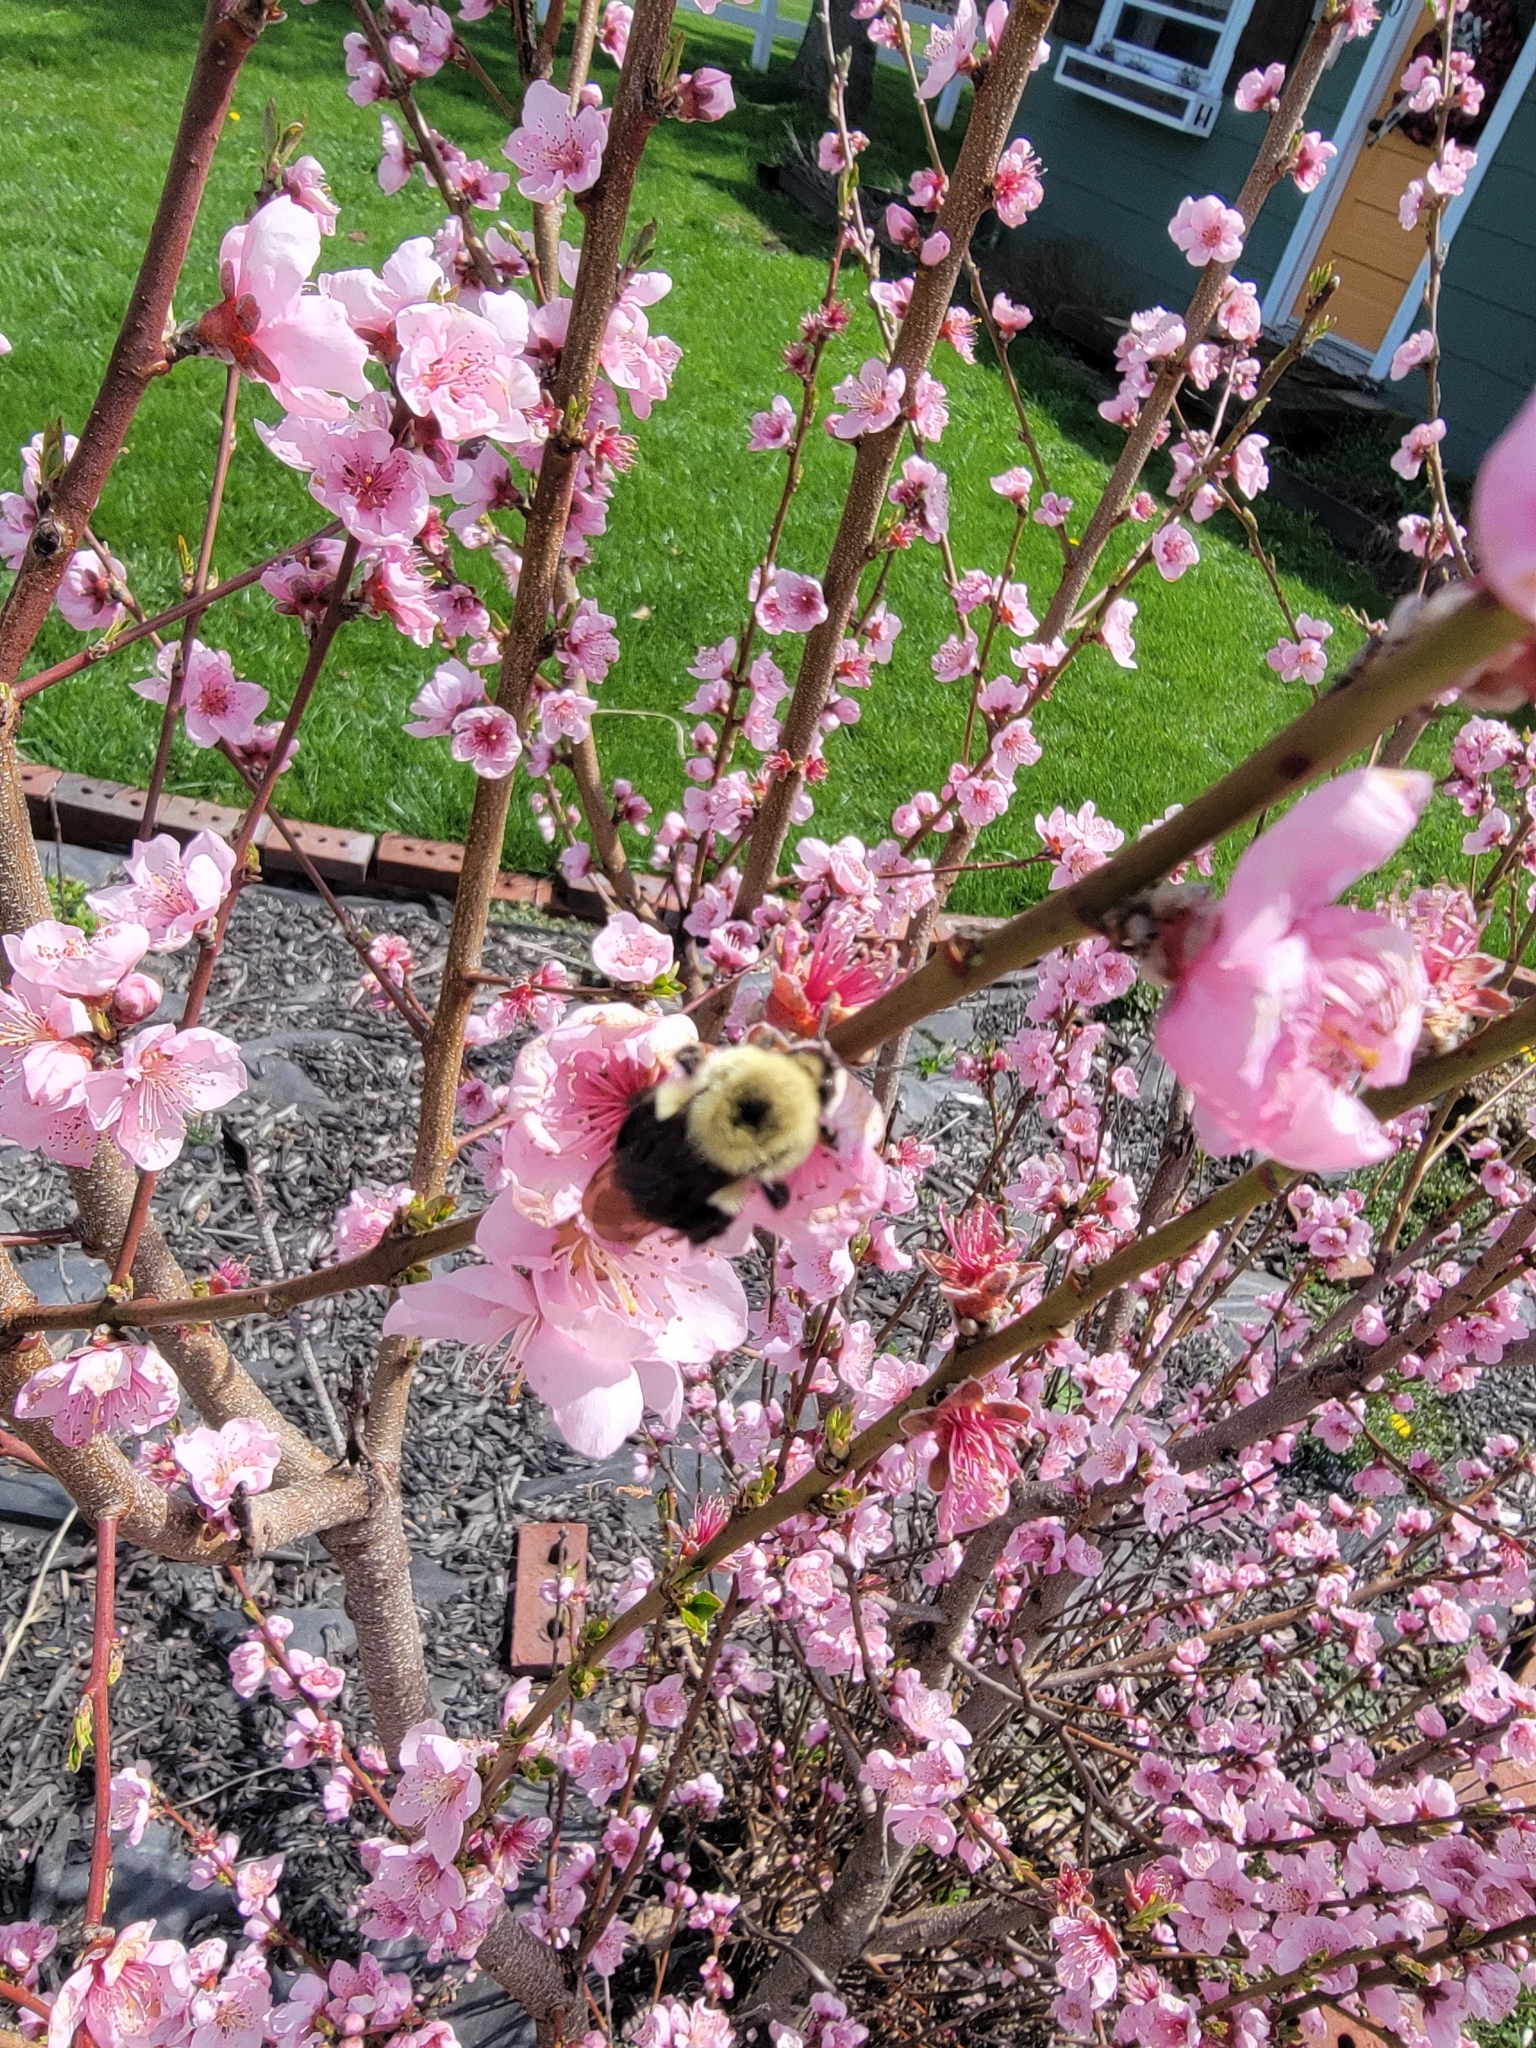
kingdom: Animalia
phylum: Arthropoda
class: Insecta
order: Hymenoptera
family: Apidae
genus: Bombus
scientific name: Bombus bimaculatus
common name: Two-spotted bumble bee
